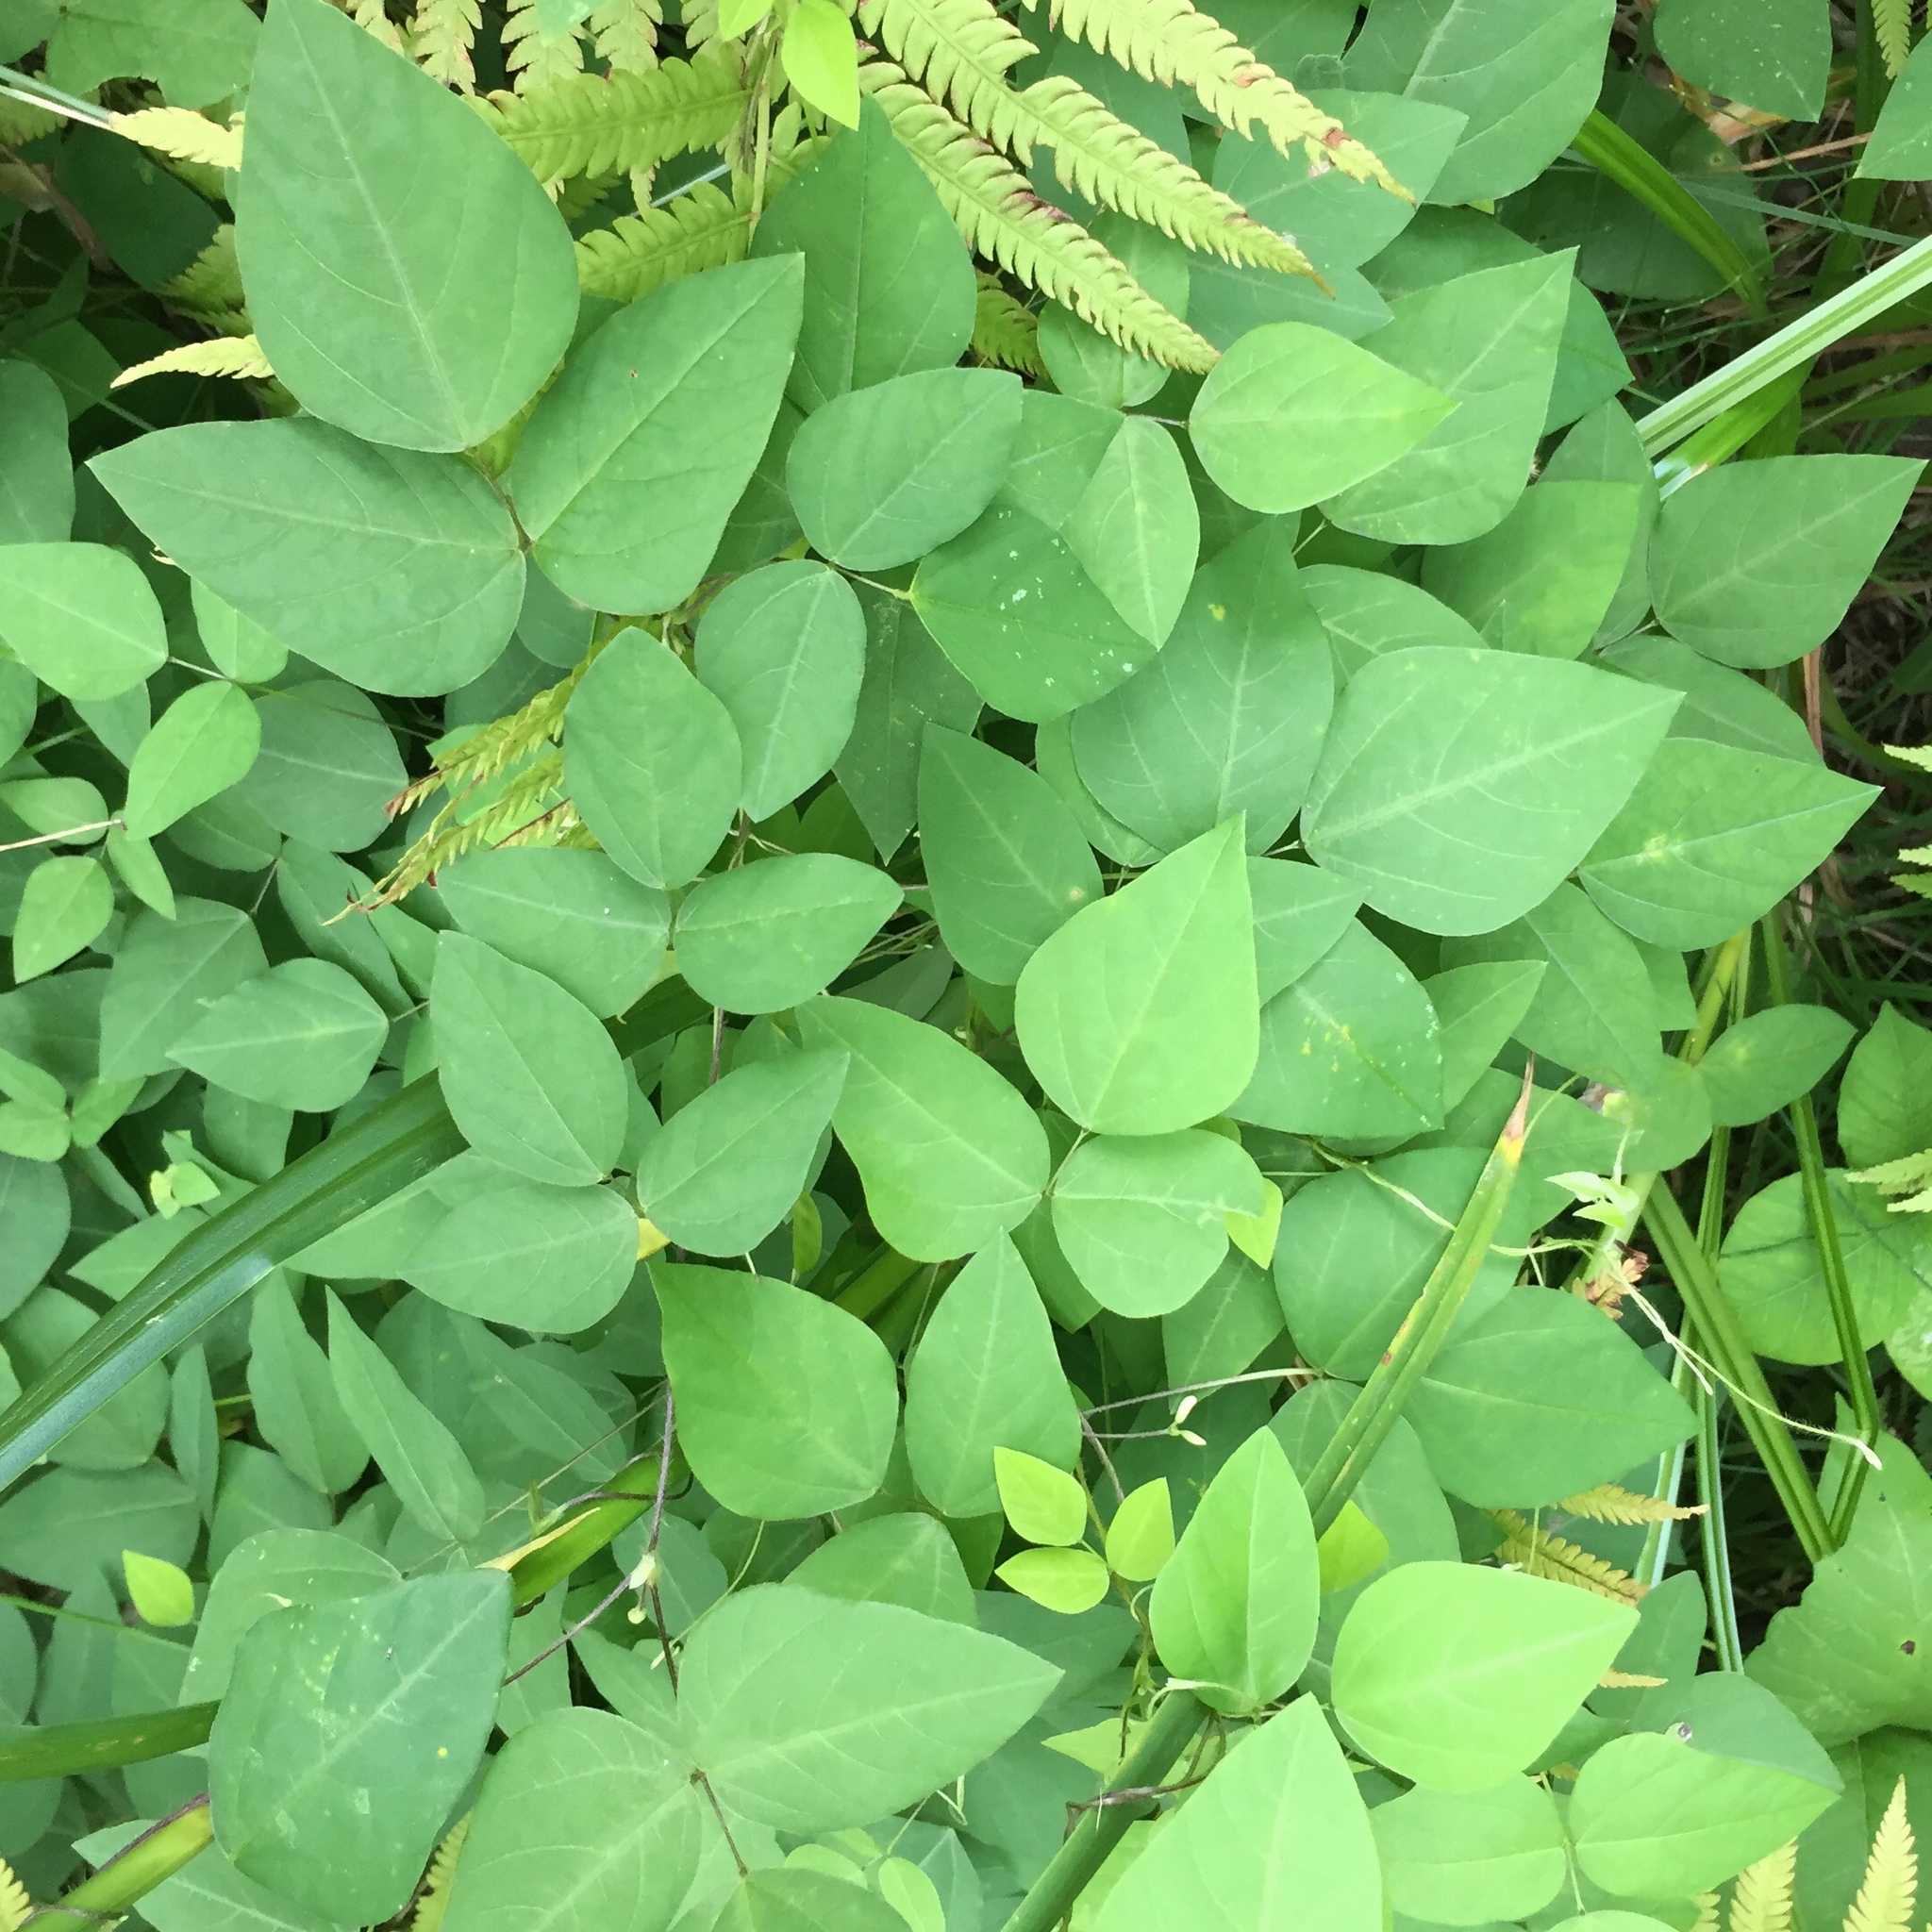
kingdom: Plantae
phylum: Tracheophyta
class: Magnoliopsida
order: Fabales
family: Fabaceae
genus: Amphicarpaea
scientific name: Amphicarpaea bracteata
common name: American hog peanut
